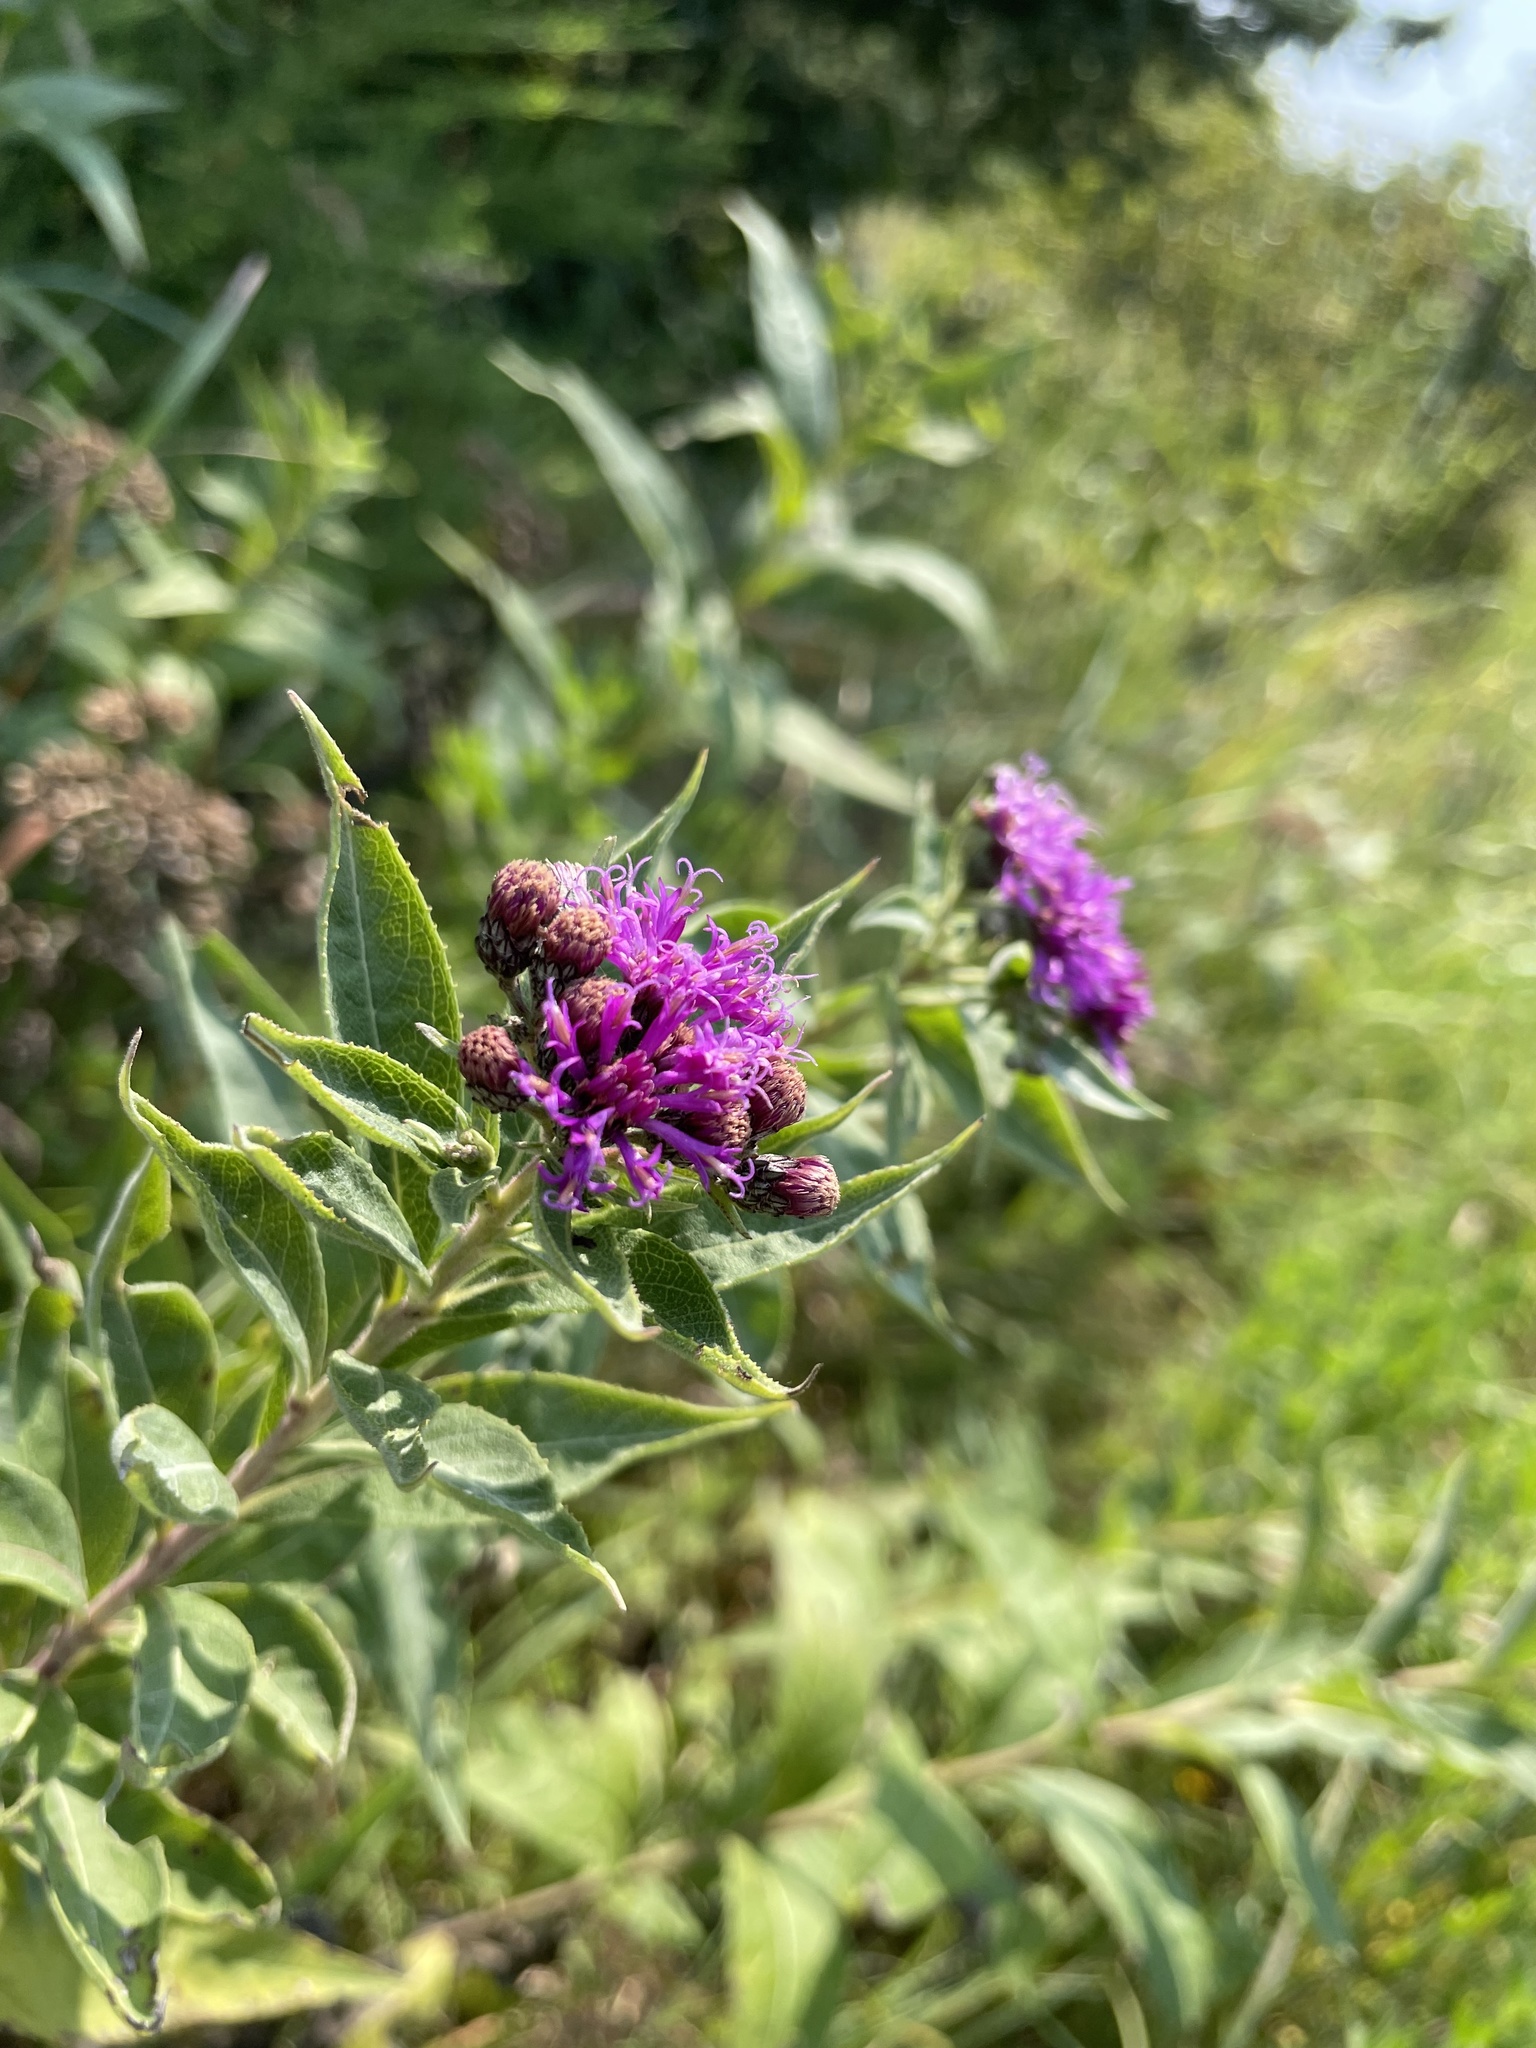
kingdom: Plantae
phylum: Tracheophyta
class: Magnoliopsida
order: Asterales
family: Asteraceae
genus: Vernonia
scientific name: Vernonia baldwinii
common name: Western ironweed
